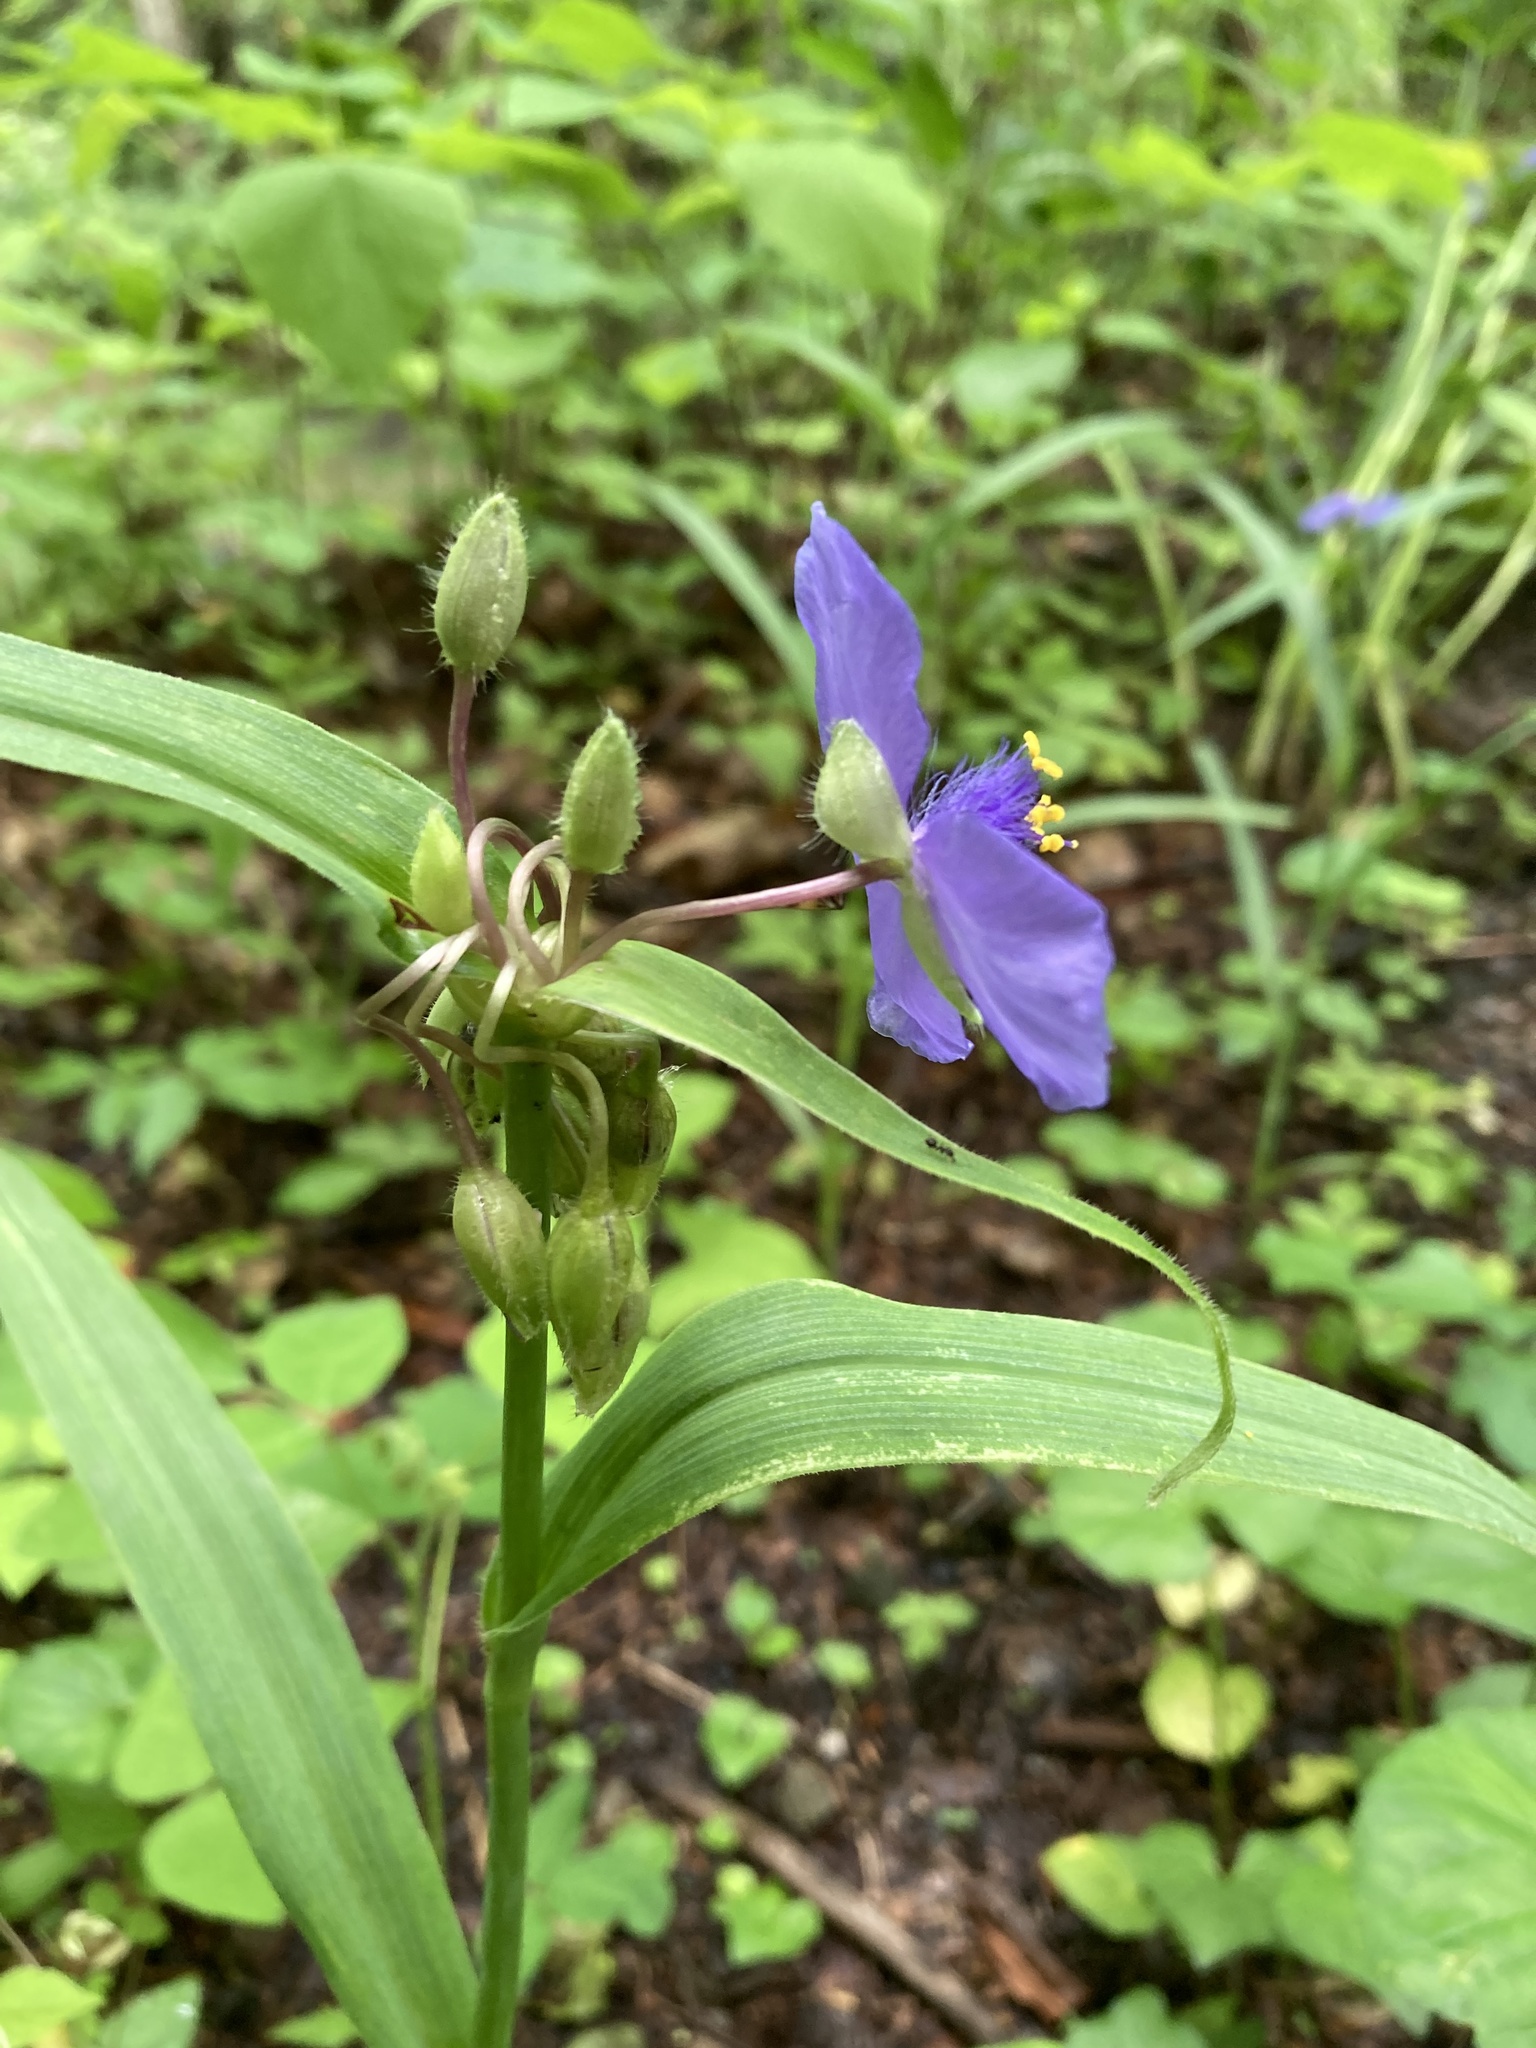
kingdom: Plantae
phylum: Tracheophyta
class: Liliopsida
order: Commelinales
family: Commelinaceae
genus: Tradescantia
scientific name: Tradescantia virginiana
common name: Spiderwort
